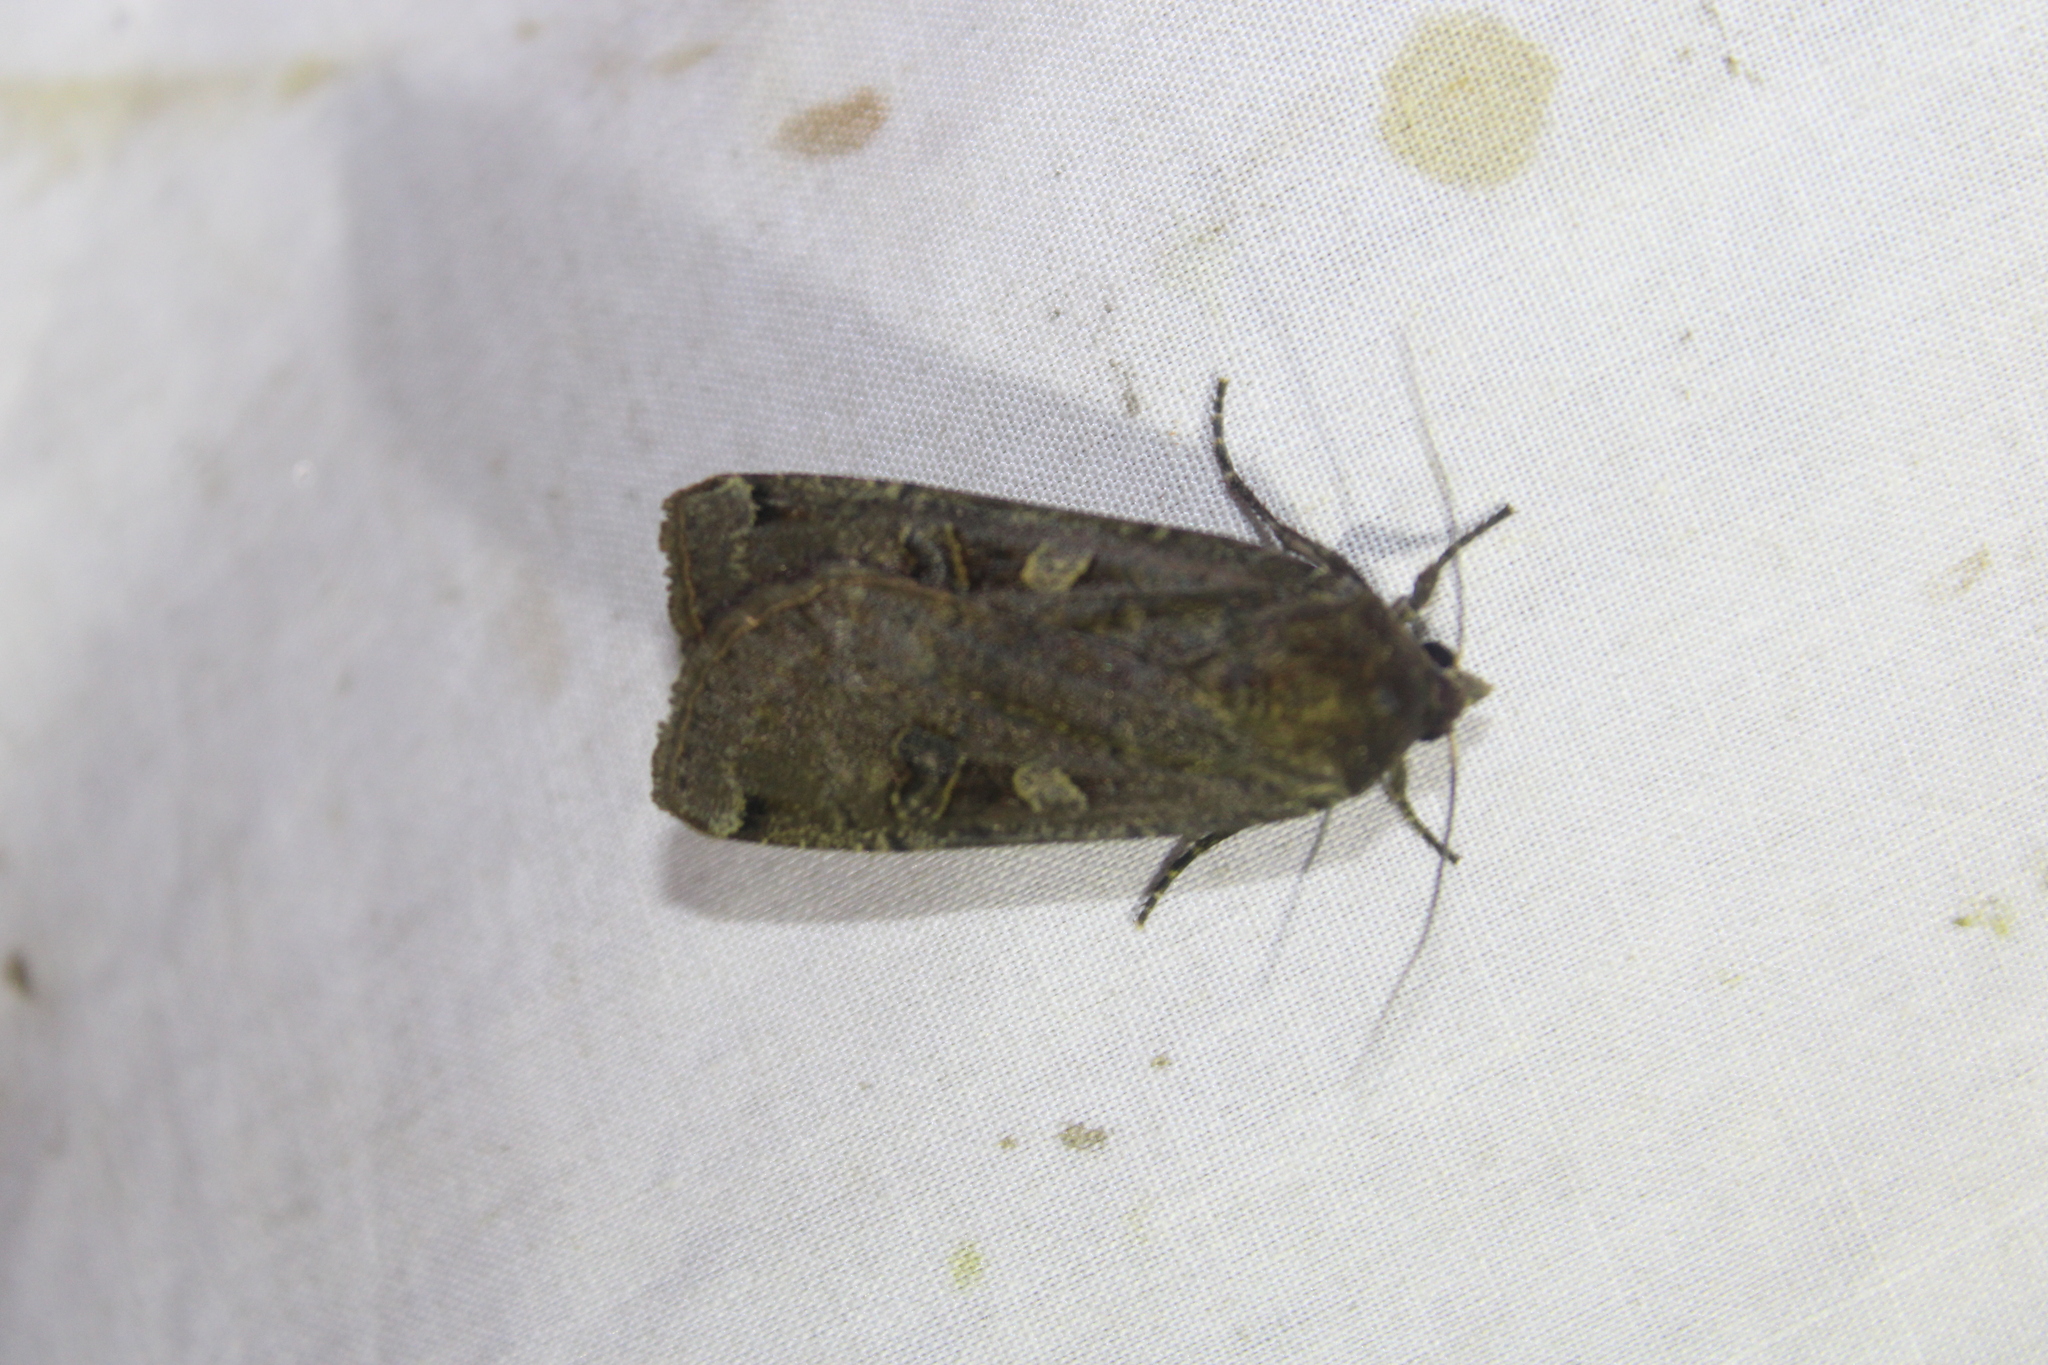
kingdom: Animalia
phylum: Arthropoda
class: Insecta
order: Lepidoptera
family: Noctuidae
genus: Noctua
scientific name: Noctua pronuba
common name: Large yellow underwing
